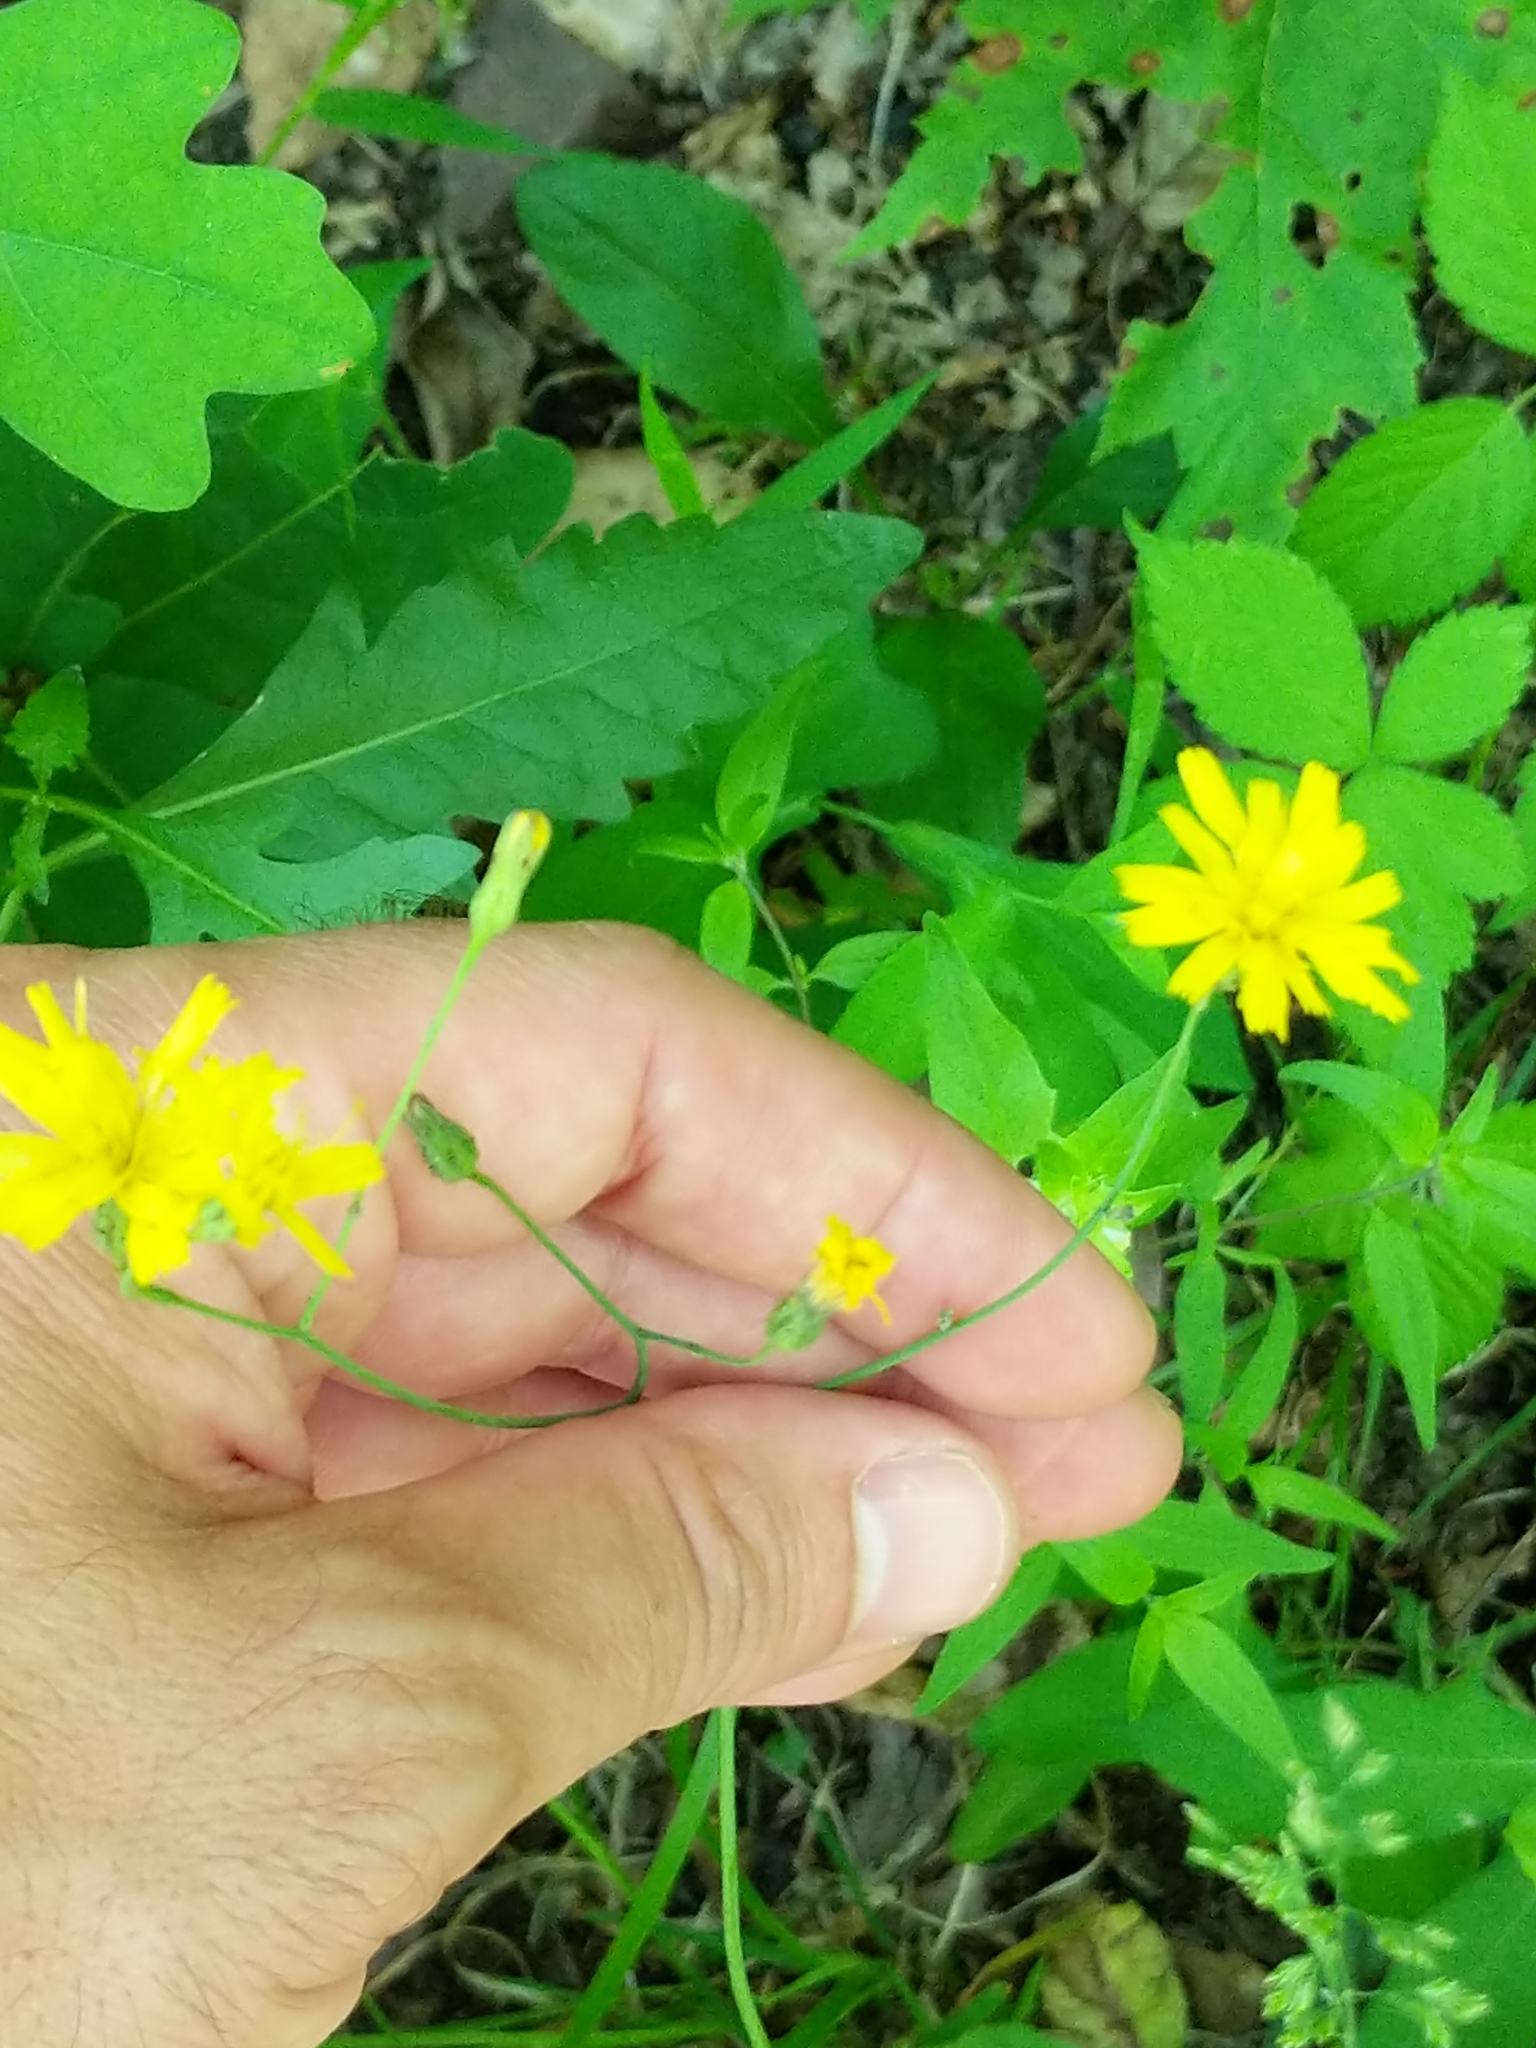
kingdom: Plantae
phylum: Tracheophyta
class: Magnoliopsida
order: Asterales
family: Asteraceae
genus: Hieracium
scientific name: Hieracium venosum
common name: Rattlesnake hawkweed
